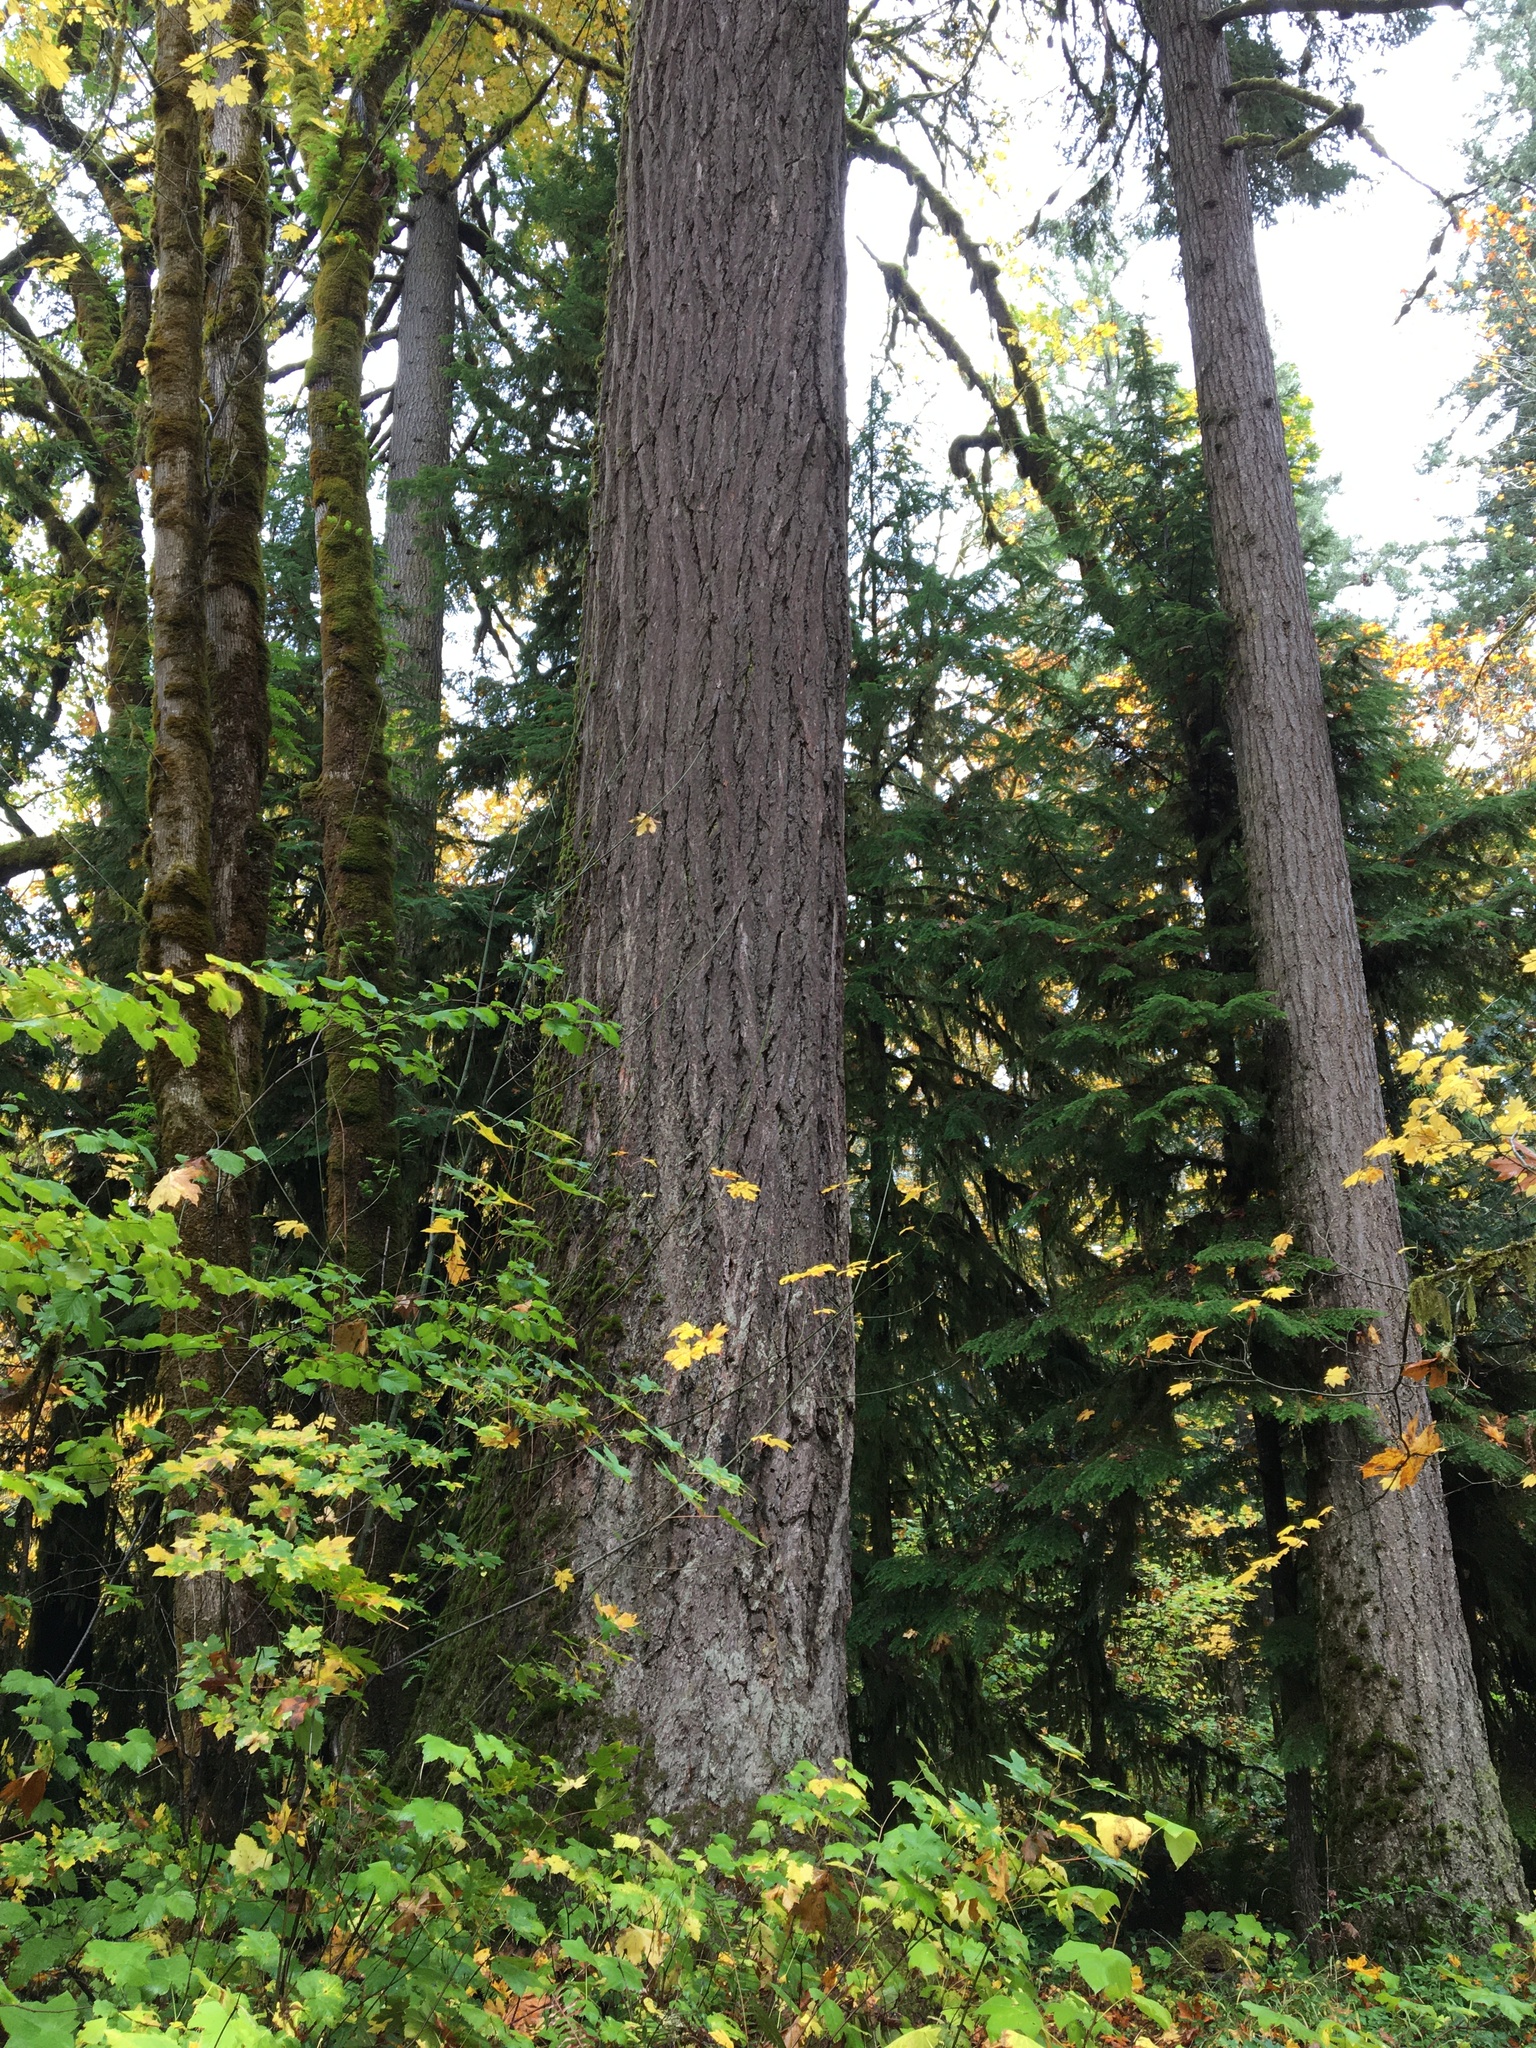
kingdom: Plantae
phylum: Tracheophyta
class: Pinopsida
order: Pinales
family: Pinaceae
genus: Pseudotsuga
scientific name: Pseudotsuga menziesii
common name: Douglas fir
